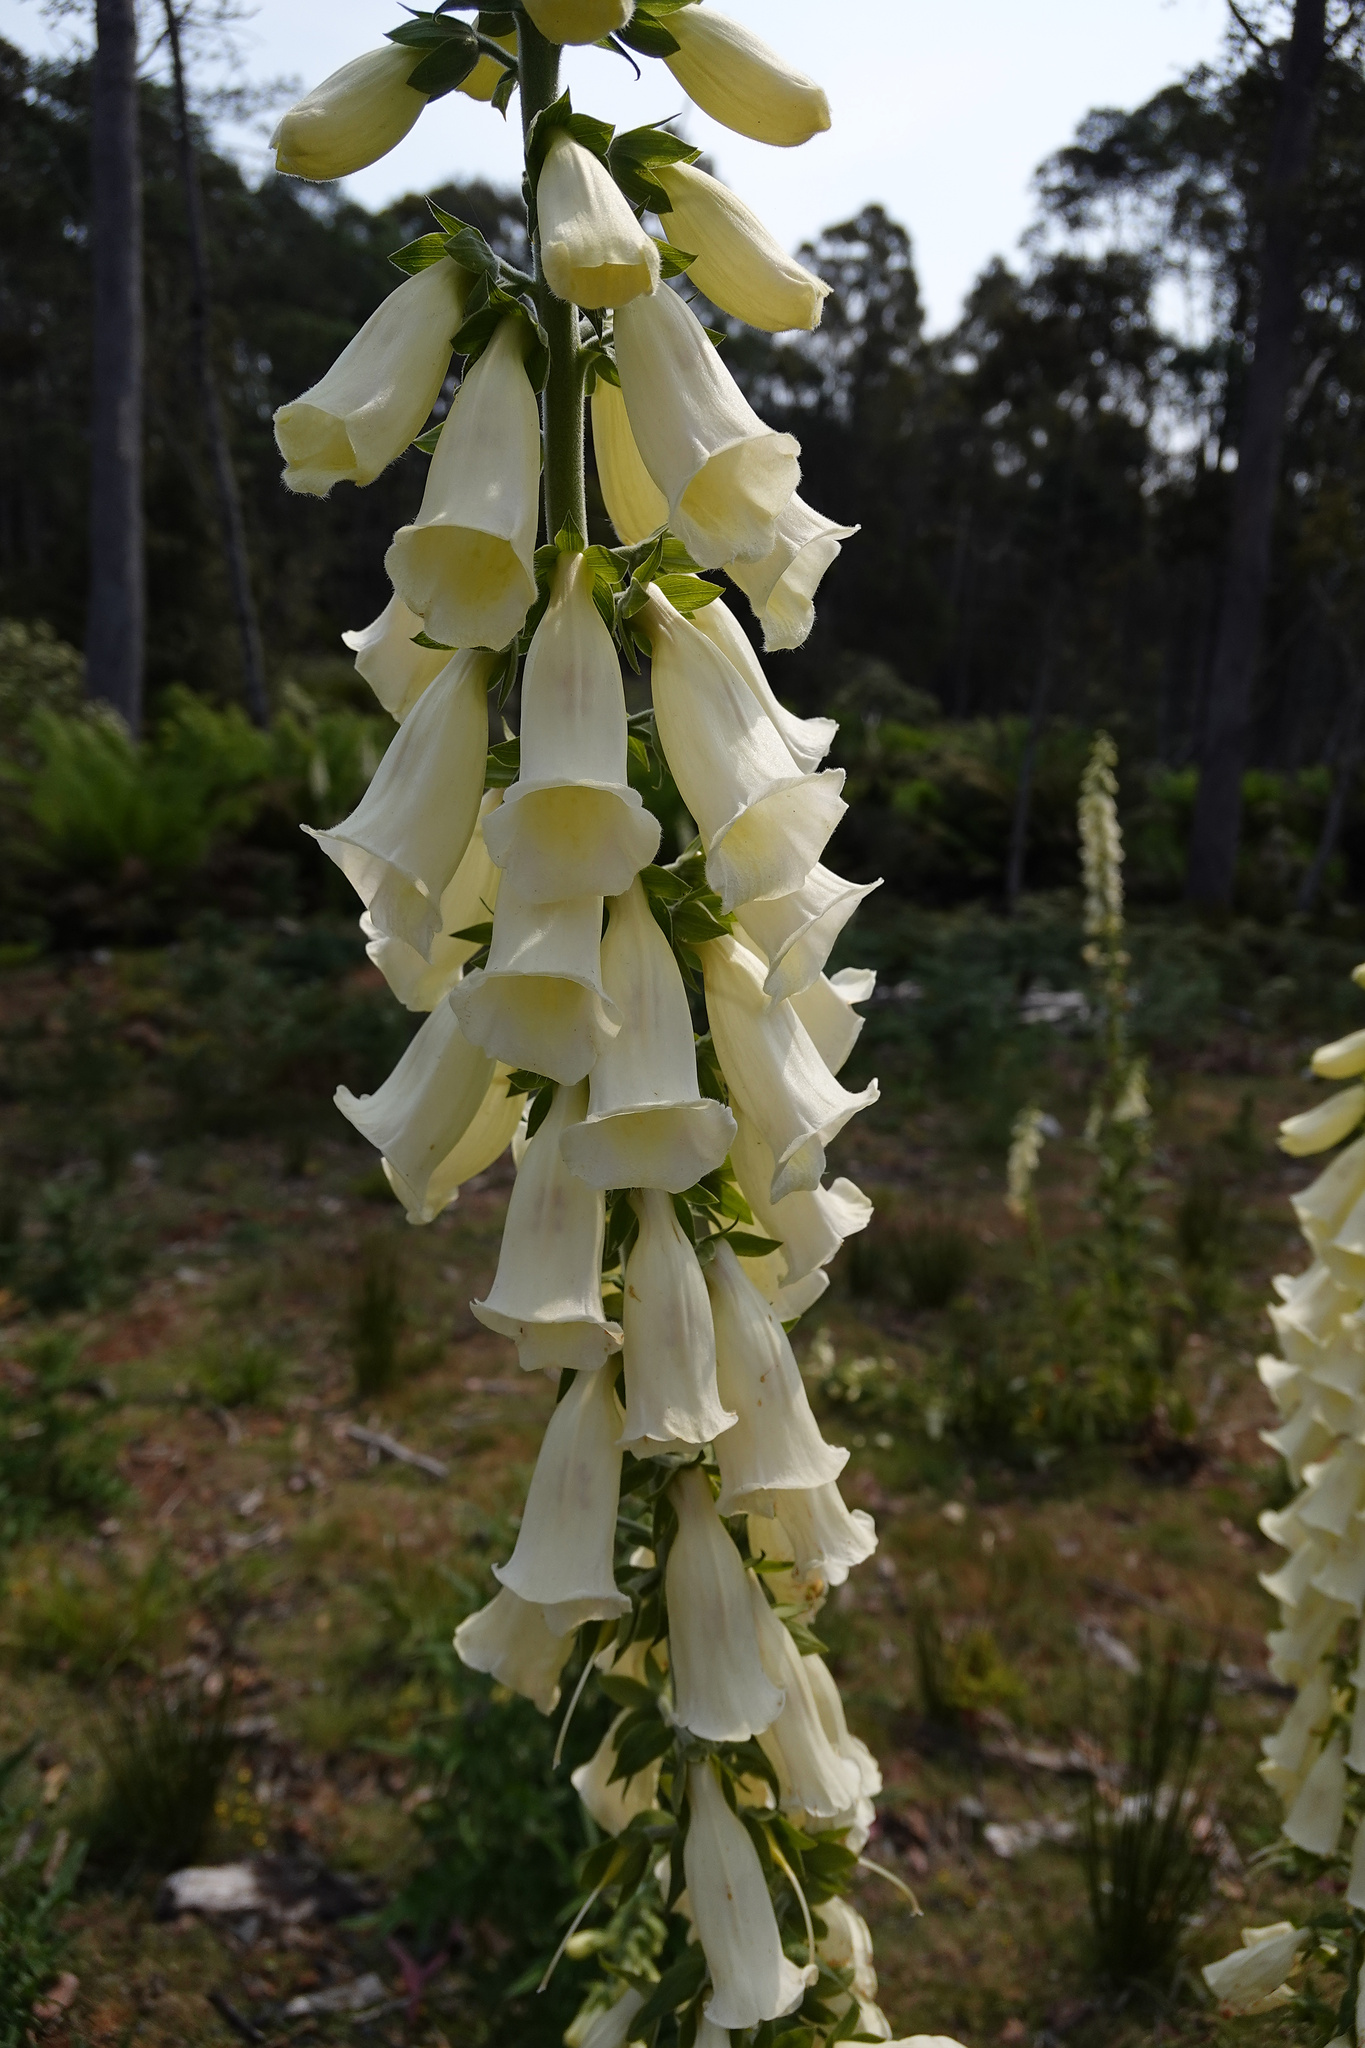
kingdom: Plantae
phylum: Tracheophyta
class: Magnoliopsida
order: Lamiales
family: Plantaginaceae
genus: Digitalis
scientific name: Digitalis purpurea
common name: Foxglove
